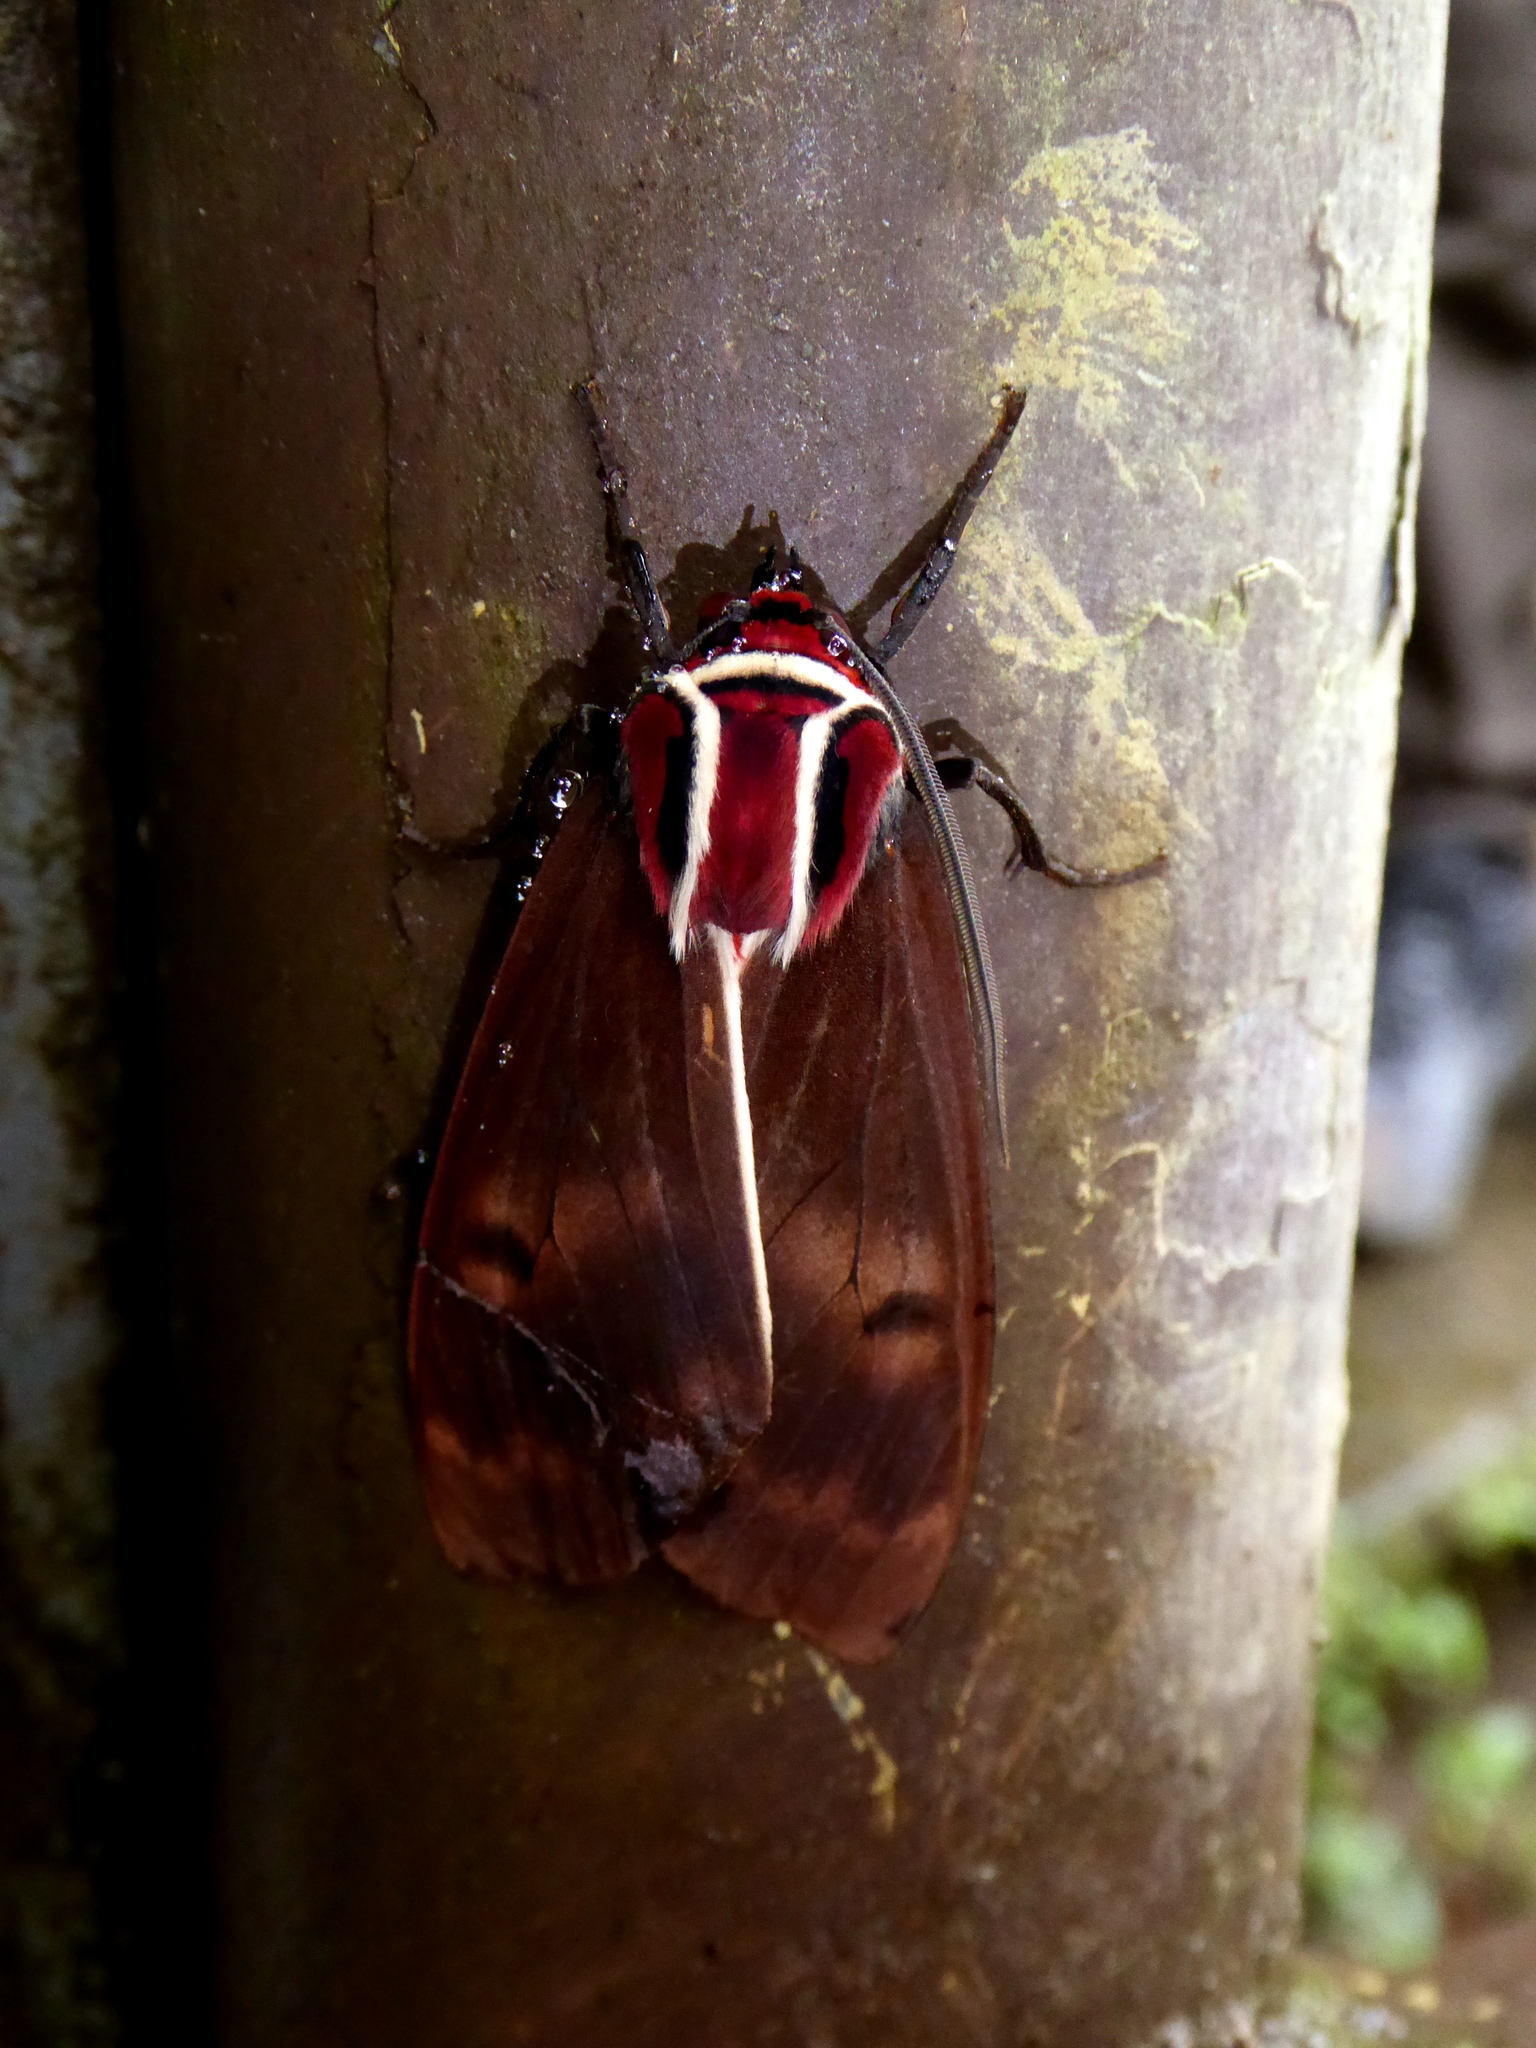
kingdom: Animalia
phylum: Arthropoda
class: Insecta
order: Lepidoptera
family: Erebidae
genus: Amastus
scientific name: Amastus episcotosia
